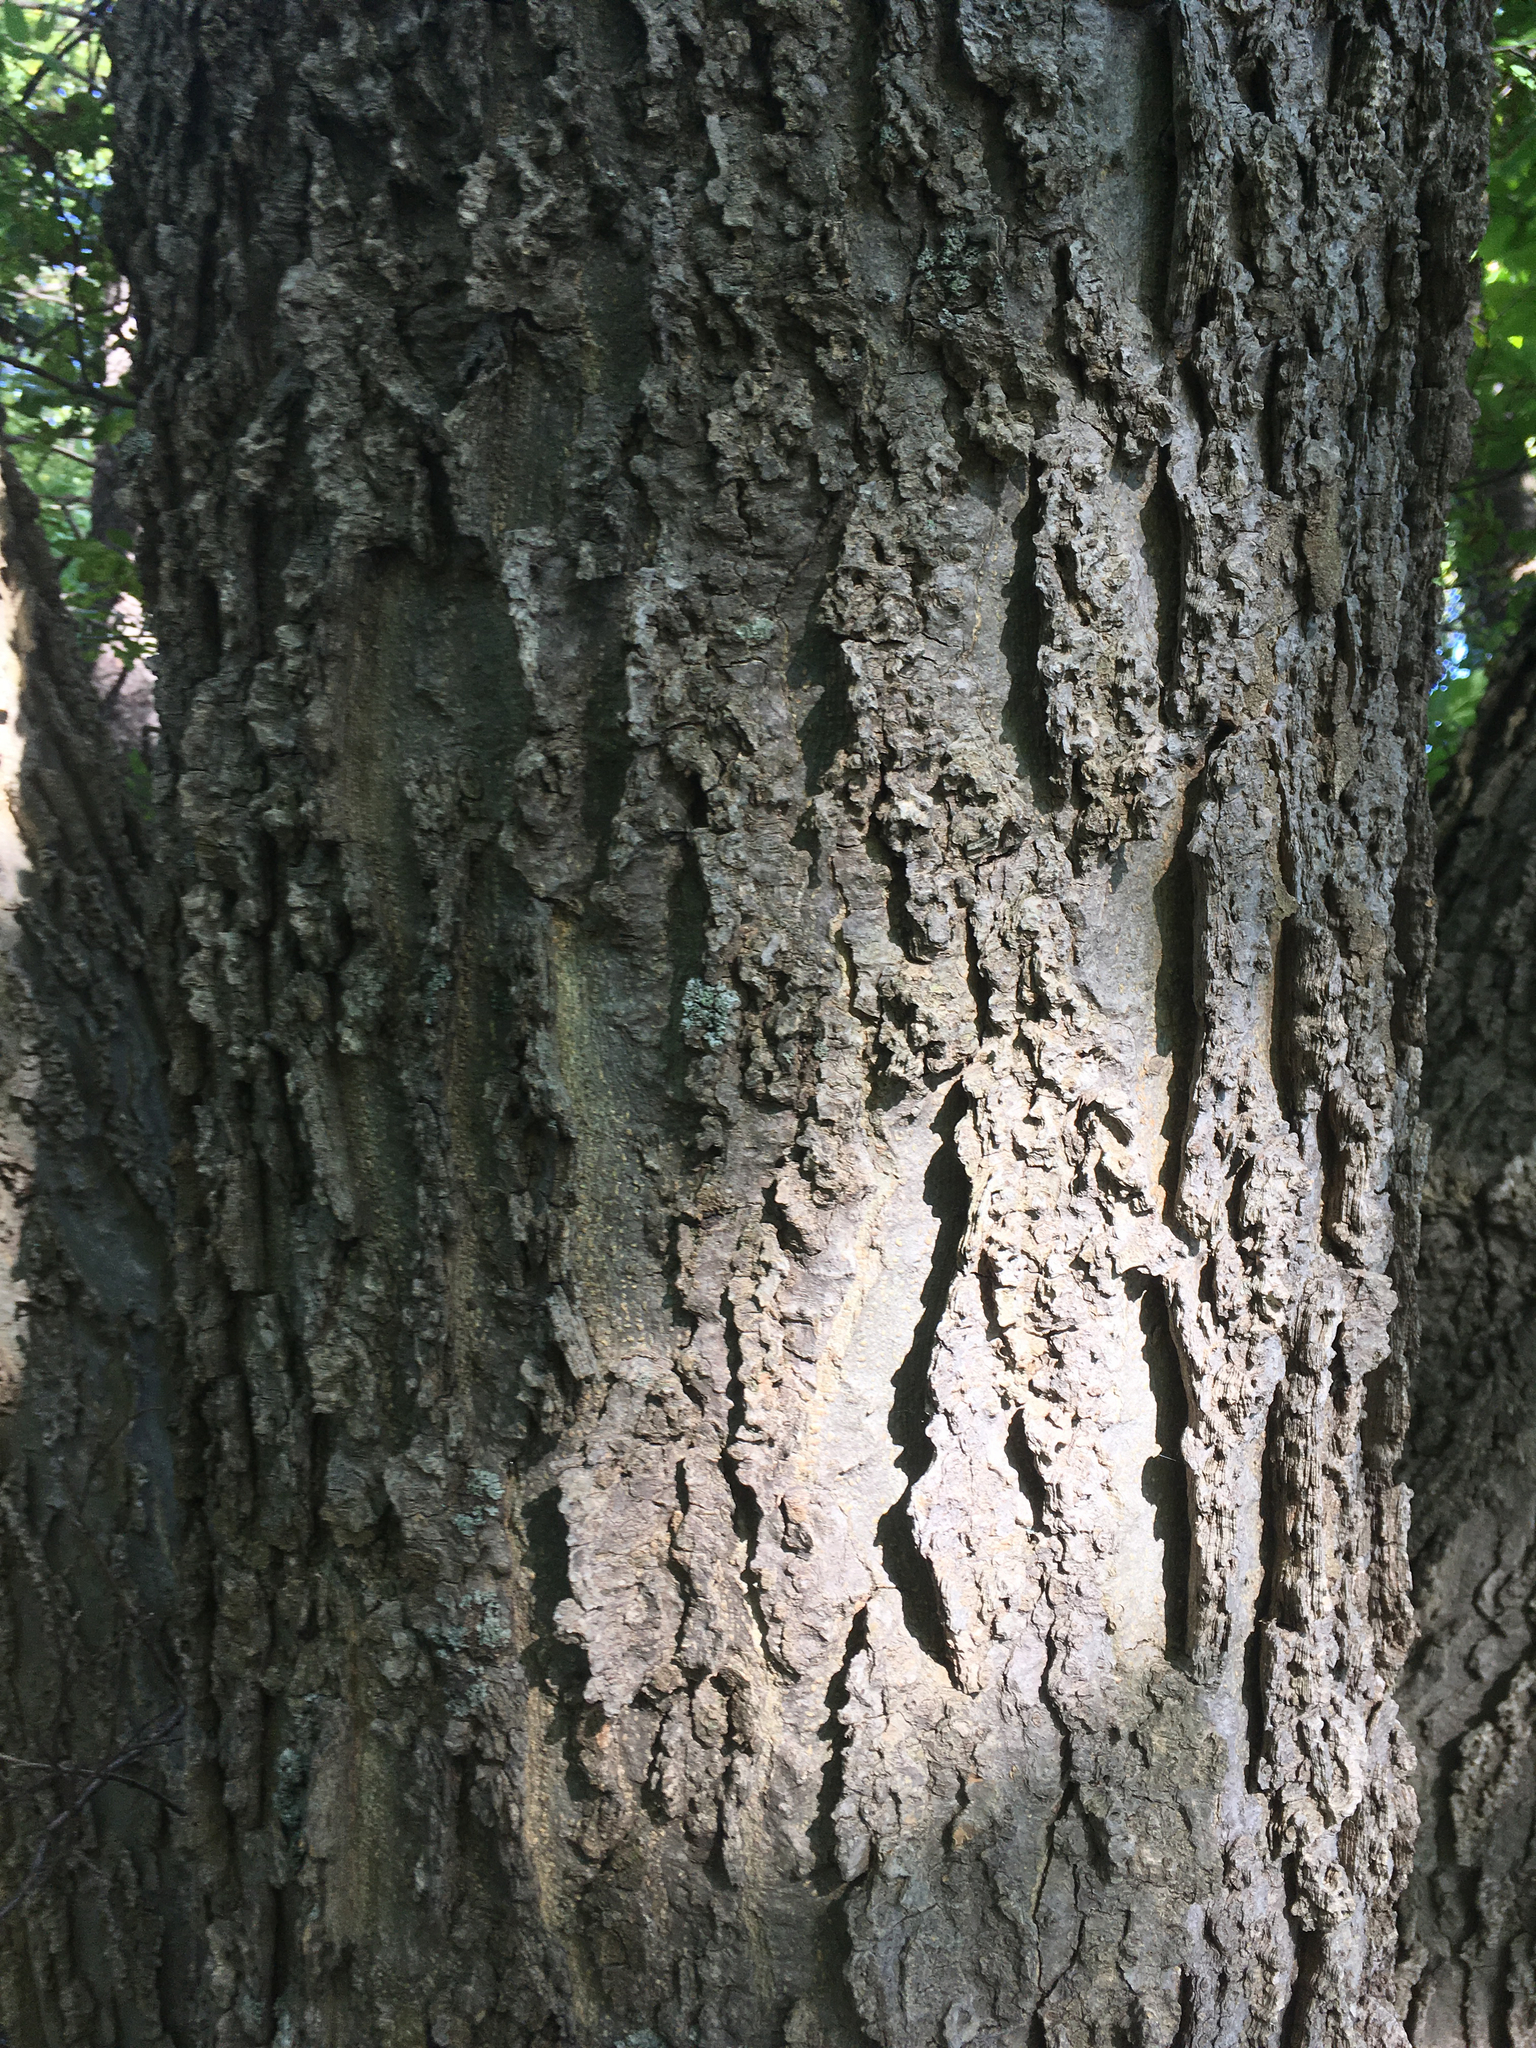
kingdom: Plantae
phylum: Tracheophyta
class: Magnoliopsida
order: Rosales
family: Cannabaceae
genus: Celtis
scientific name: Celtis occidentalis
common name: Common hackberry
